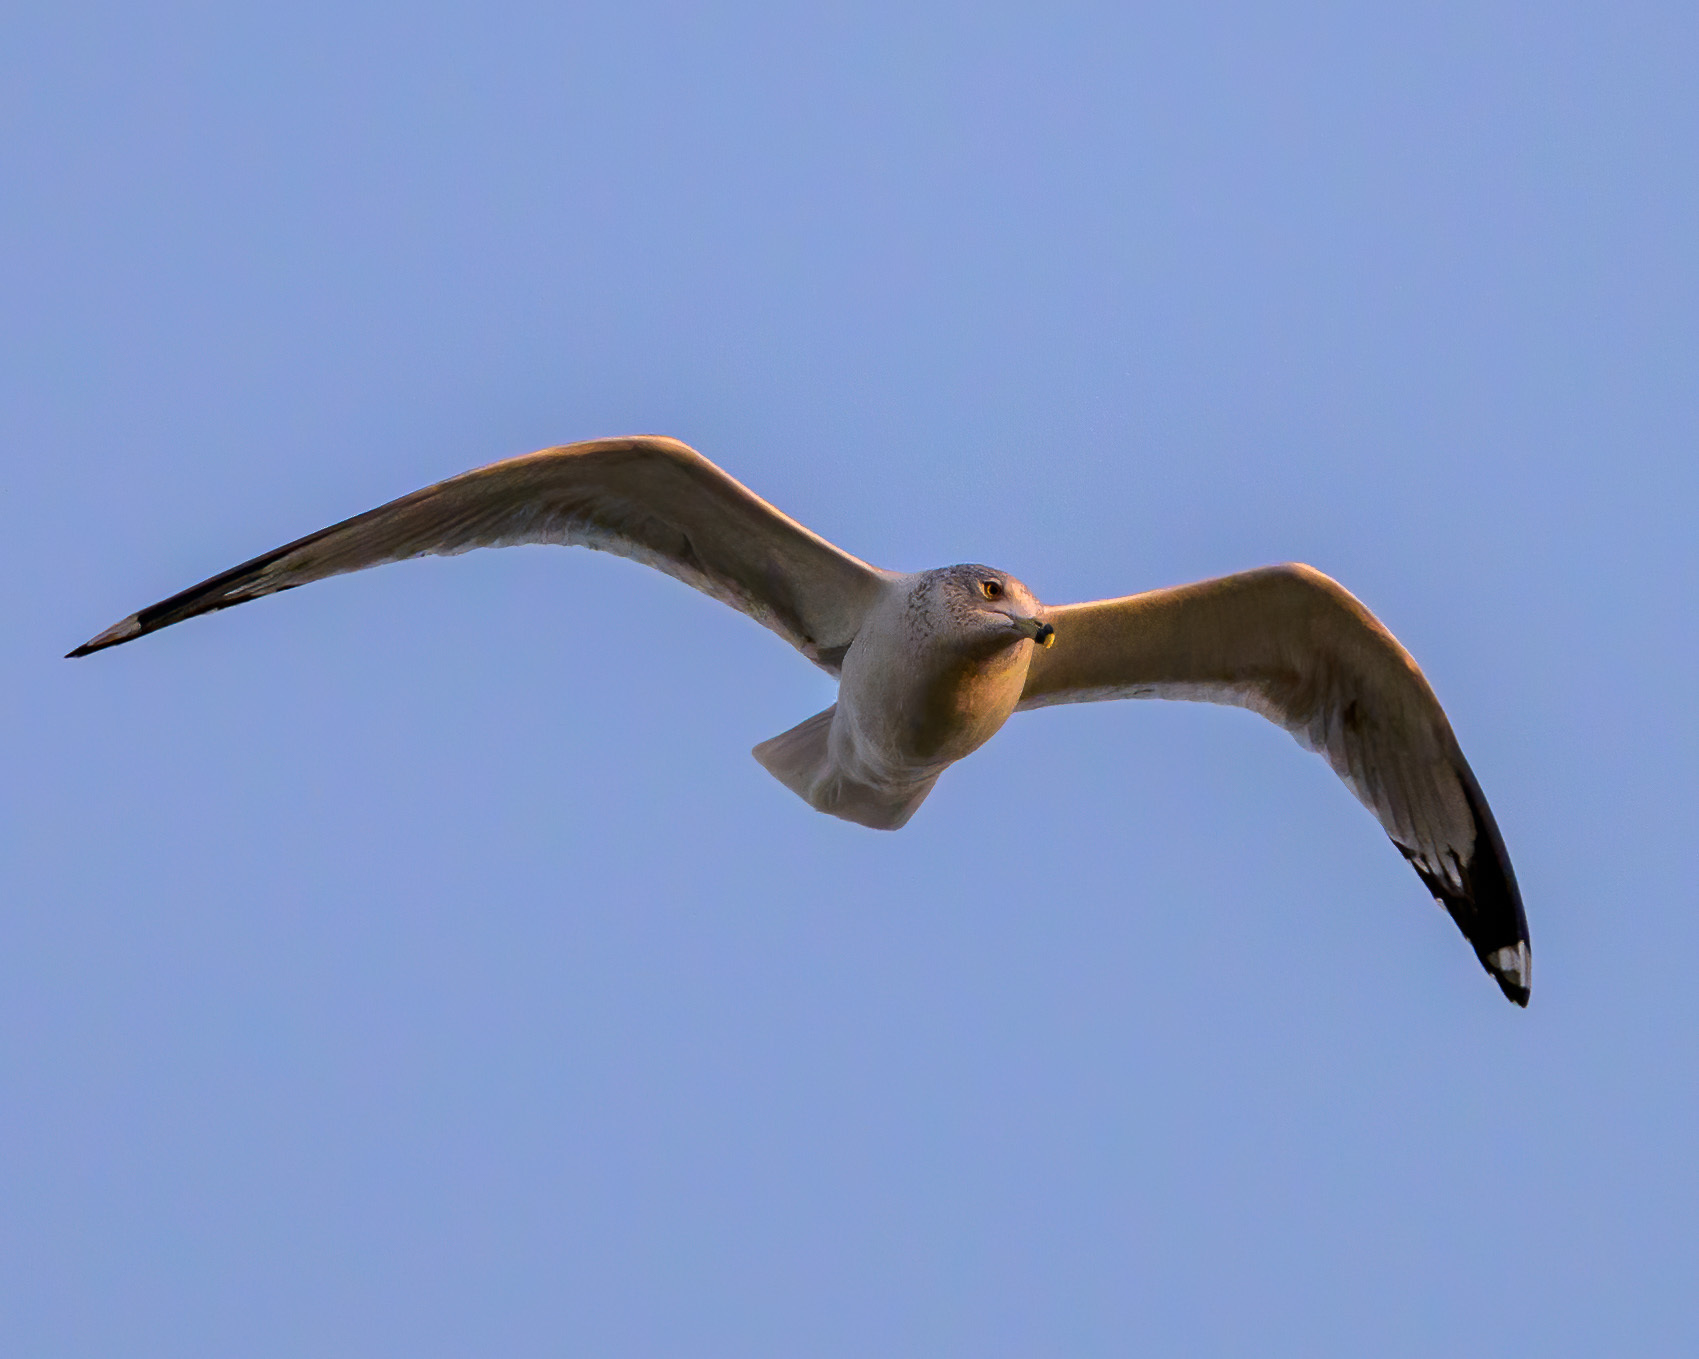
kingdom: Animalia
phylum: Chordata
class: Aves
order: Charadriiformes
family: Laridae
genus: Larus
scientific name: Larus delawarensis
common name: Ring-billed gull
